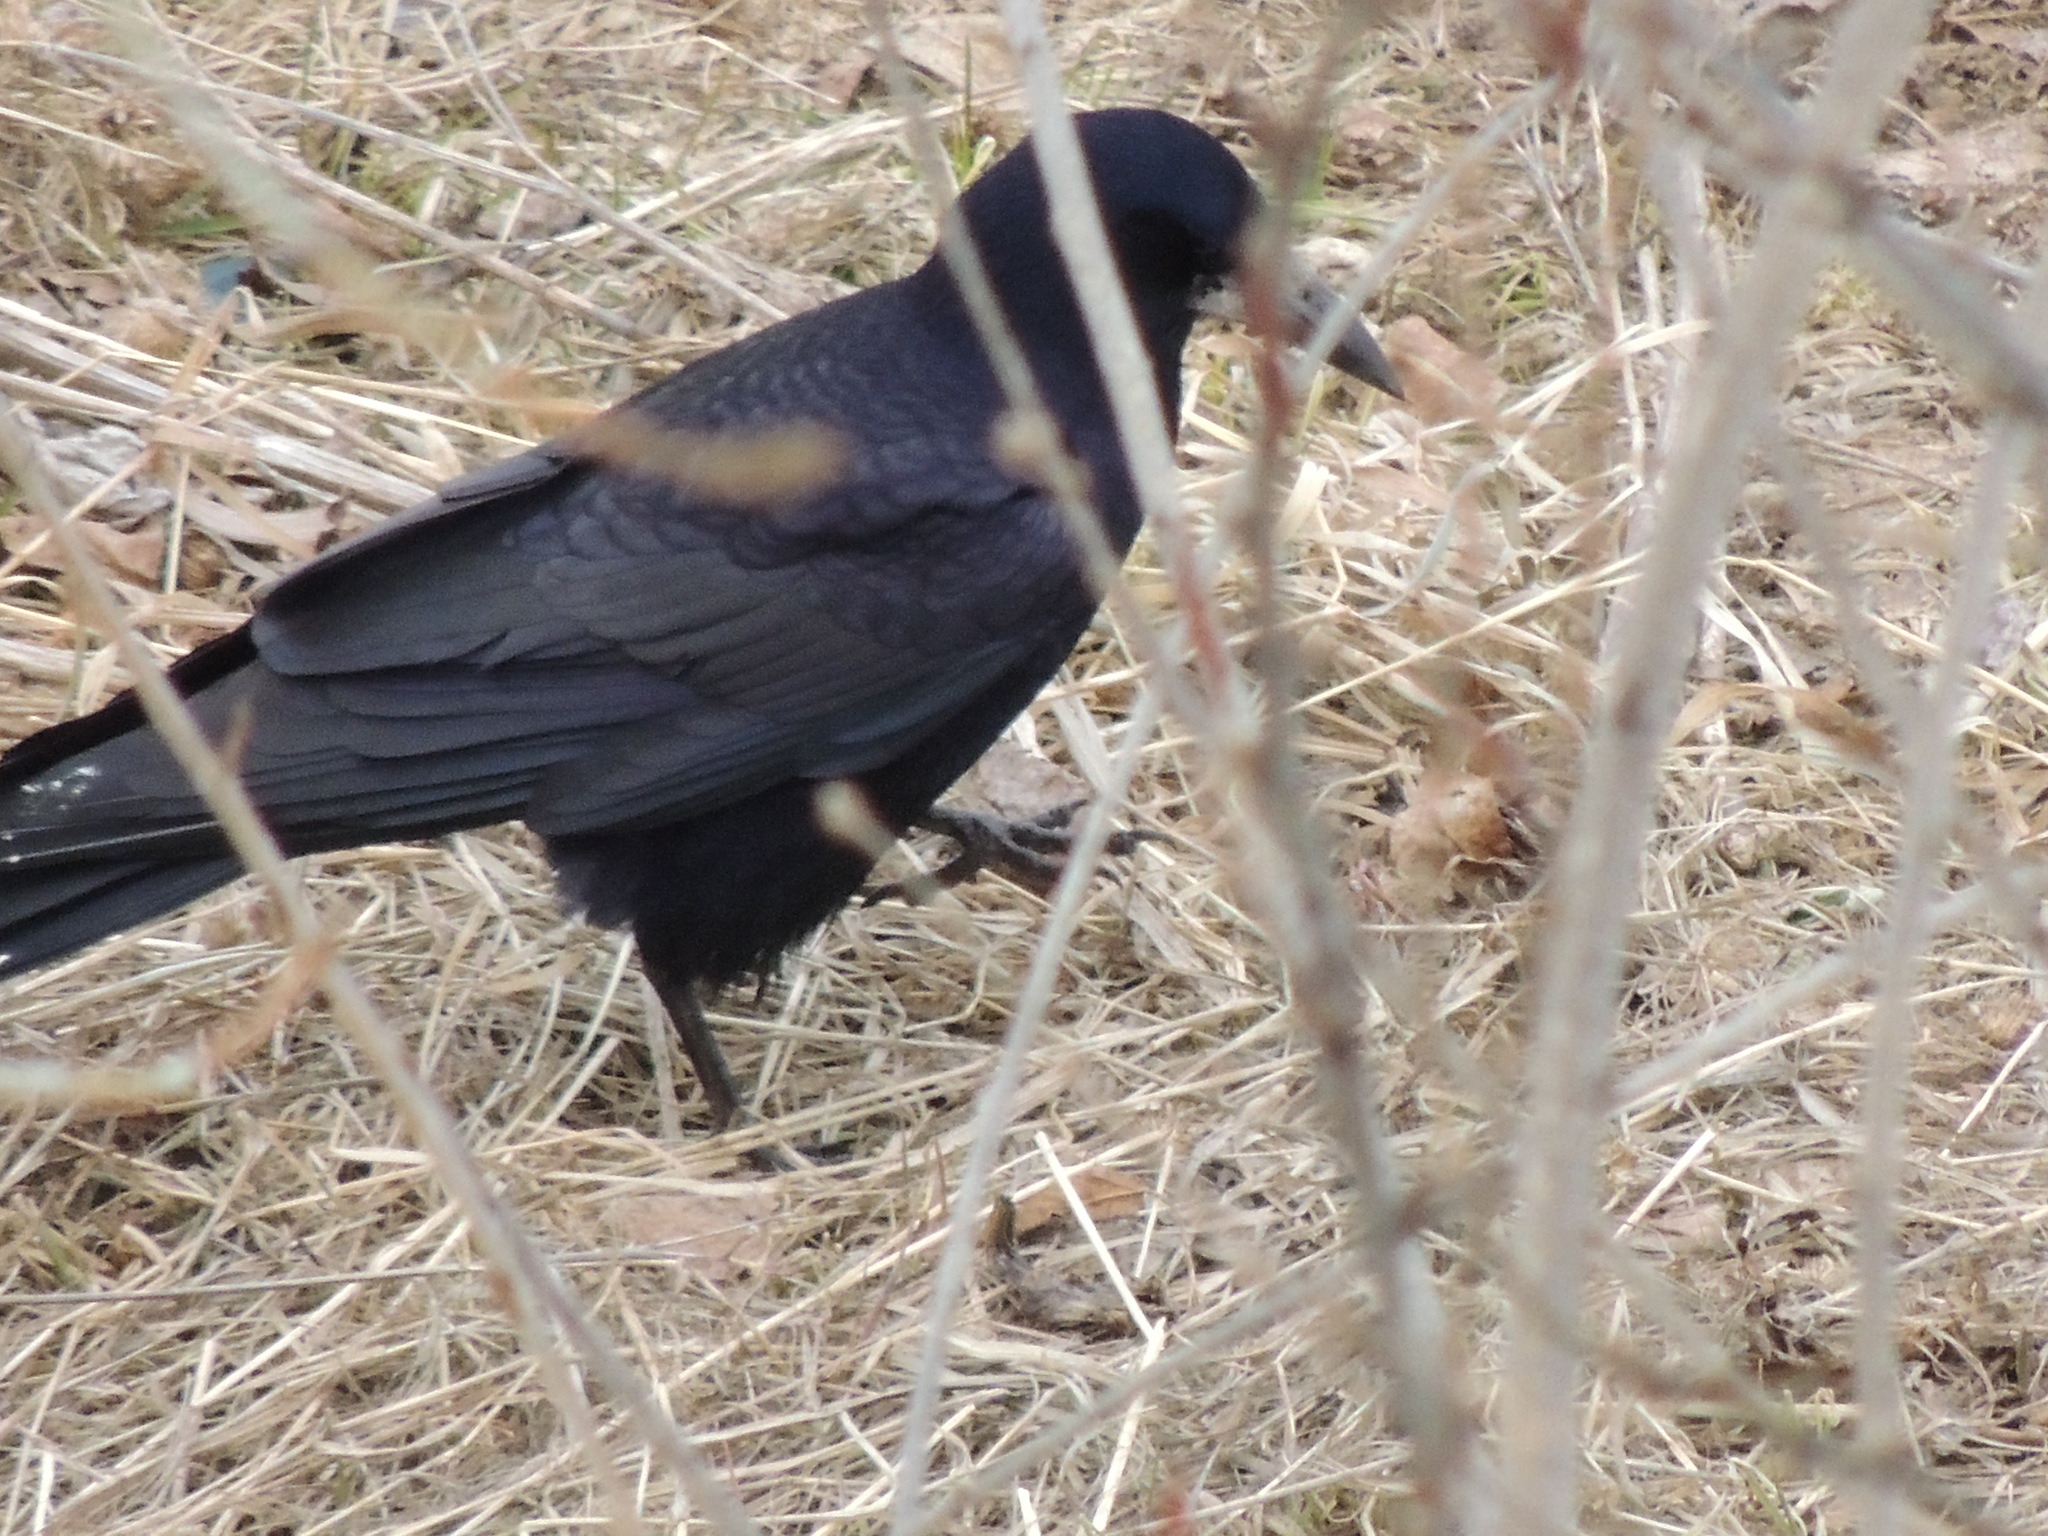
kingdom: Animalia
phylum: Chordata
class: Aves
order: Passeriformes
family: Corvidae
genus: Corvus
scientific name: Corvus frugilegus
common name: Rook
